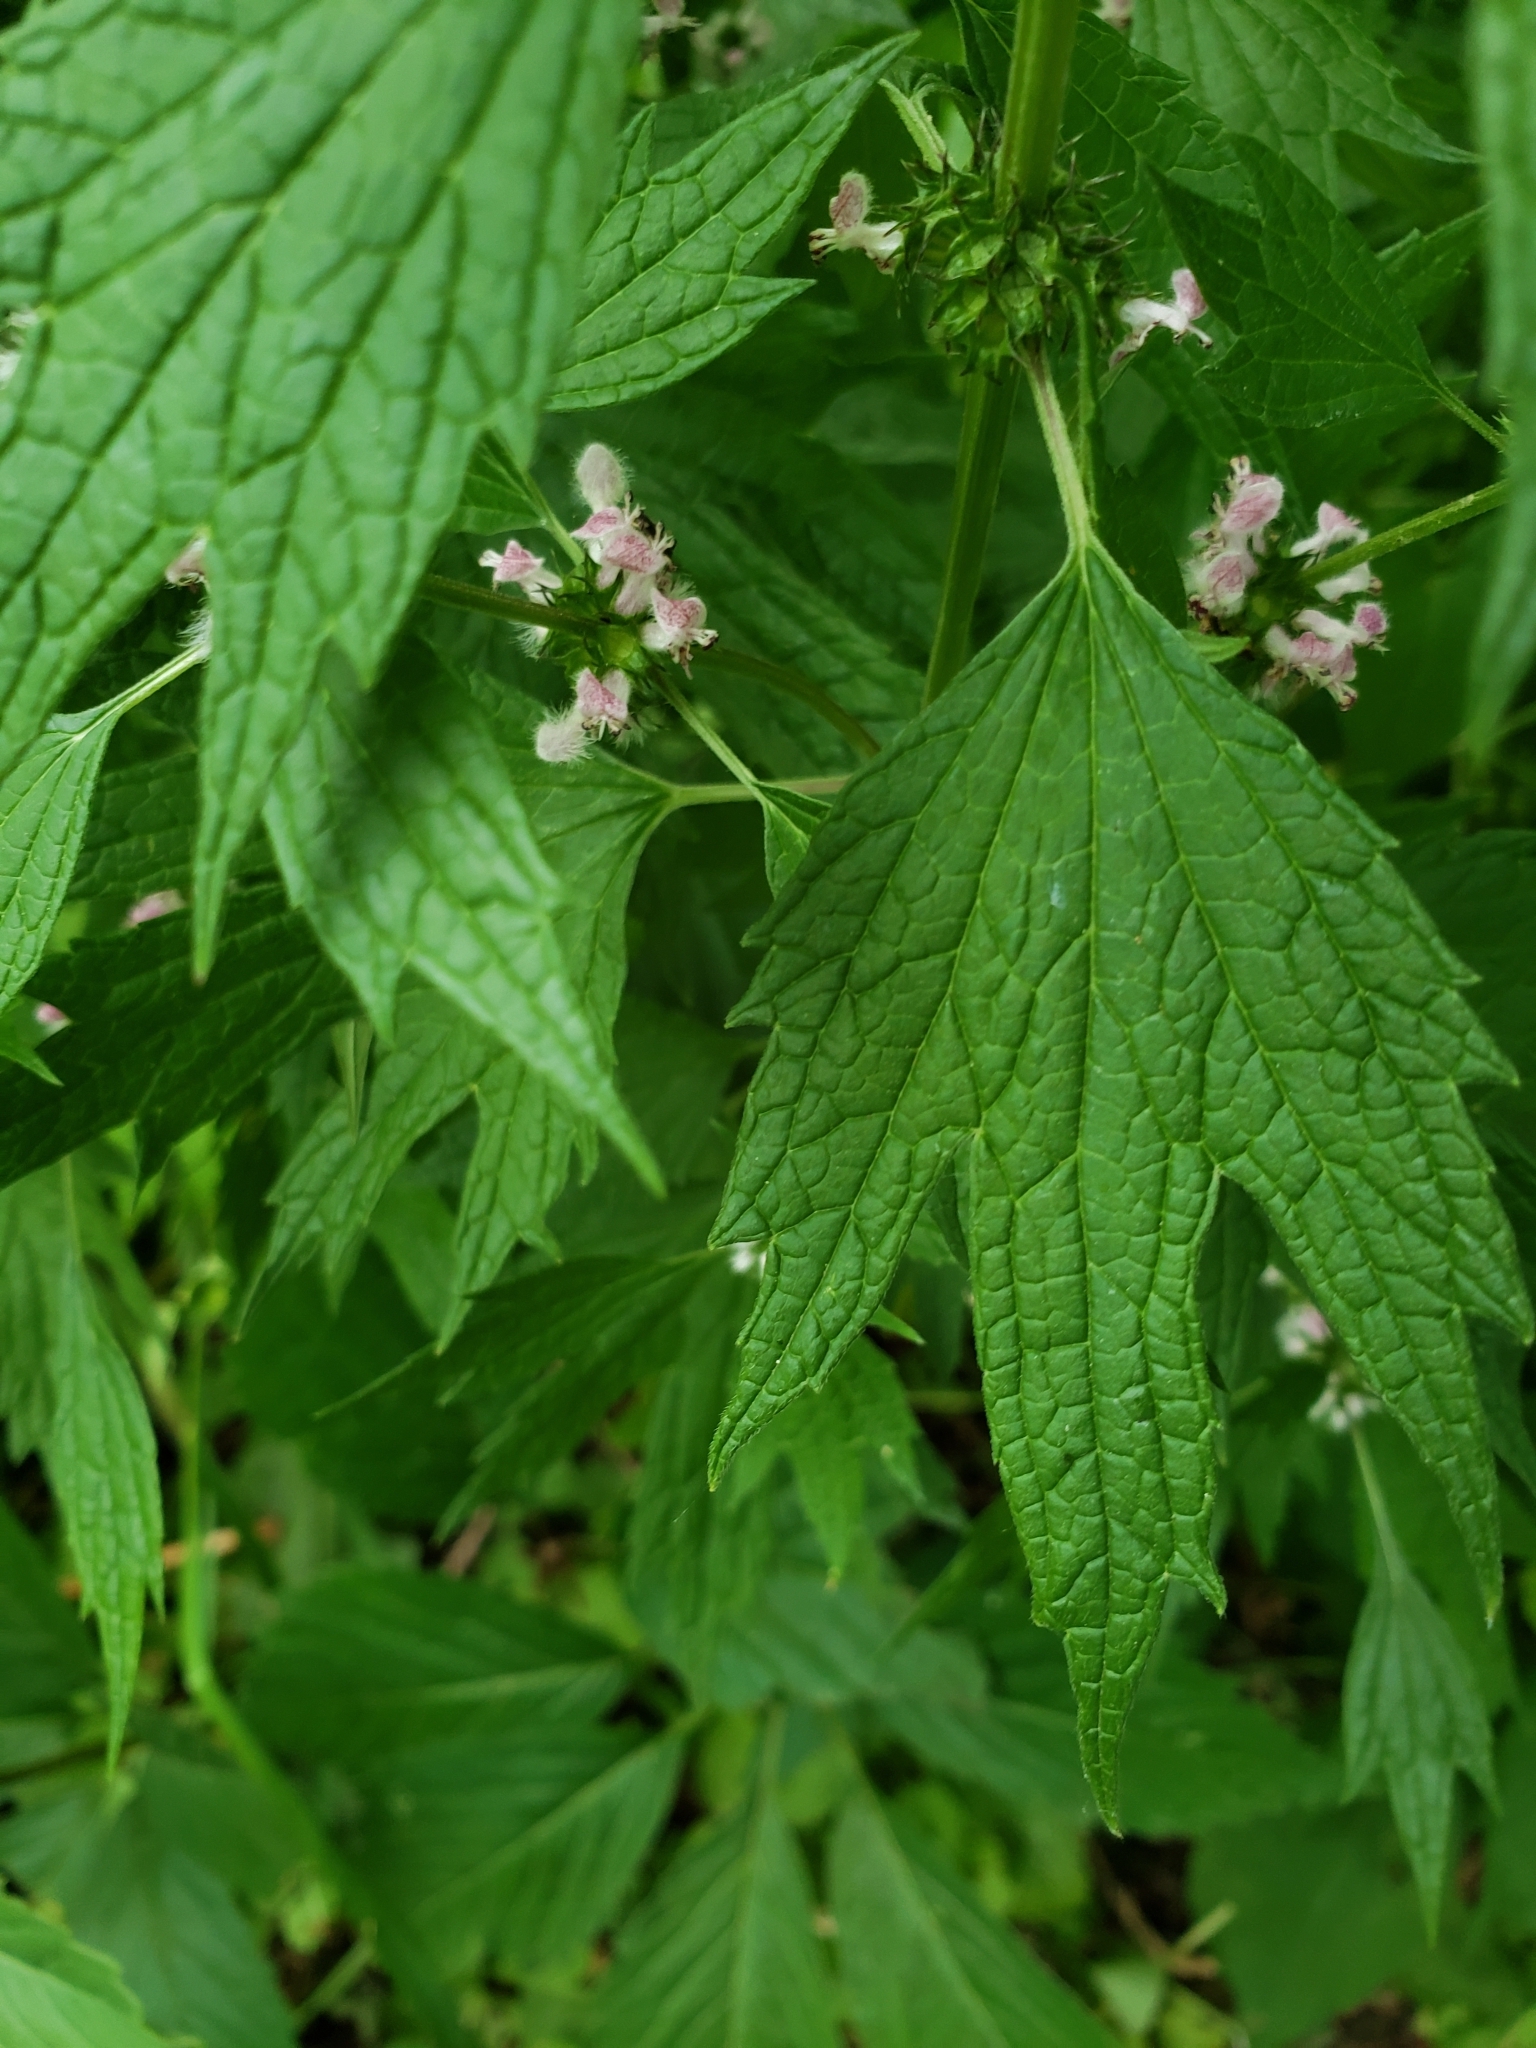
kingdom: Plantae
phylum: Tracheophyta
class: Magnoliopsida
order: Lamiales
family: Lamiaceae
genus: Leonurus
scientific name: Leonurus cardiaca
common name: Motherwort
